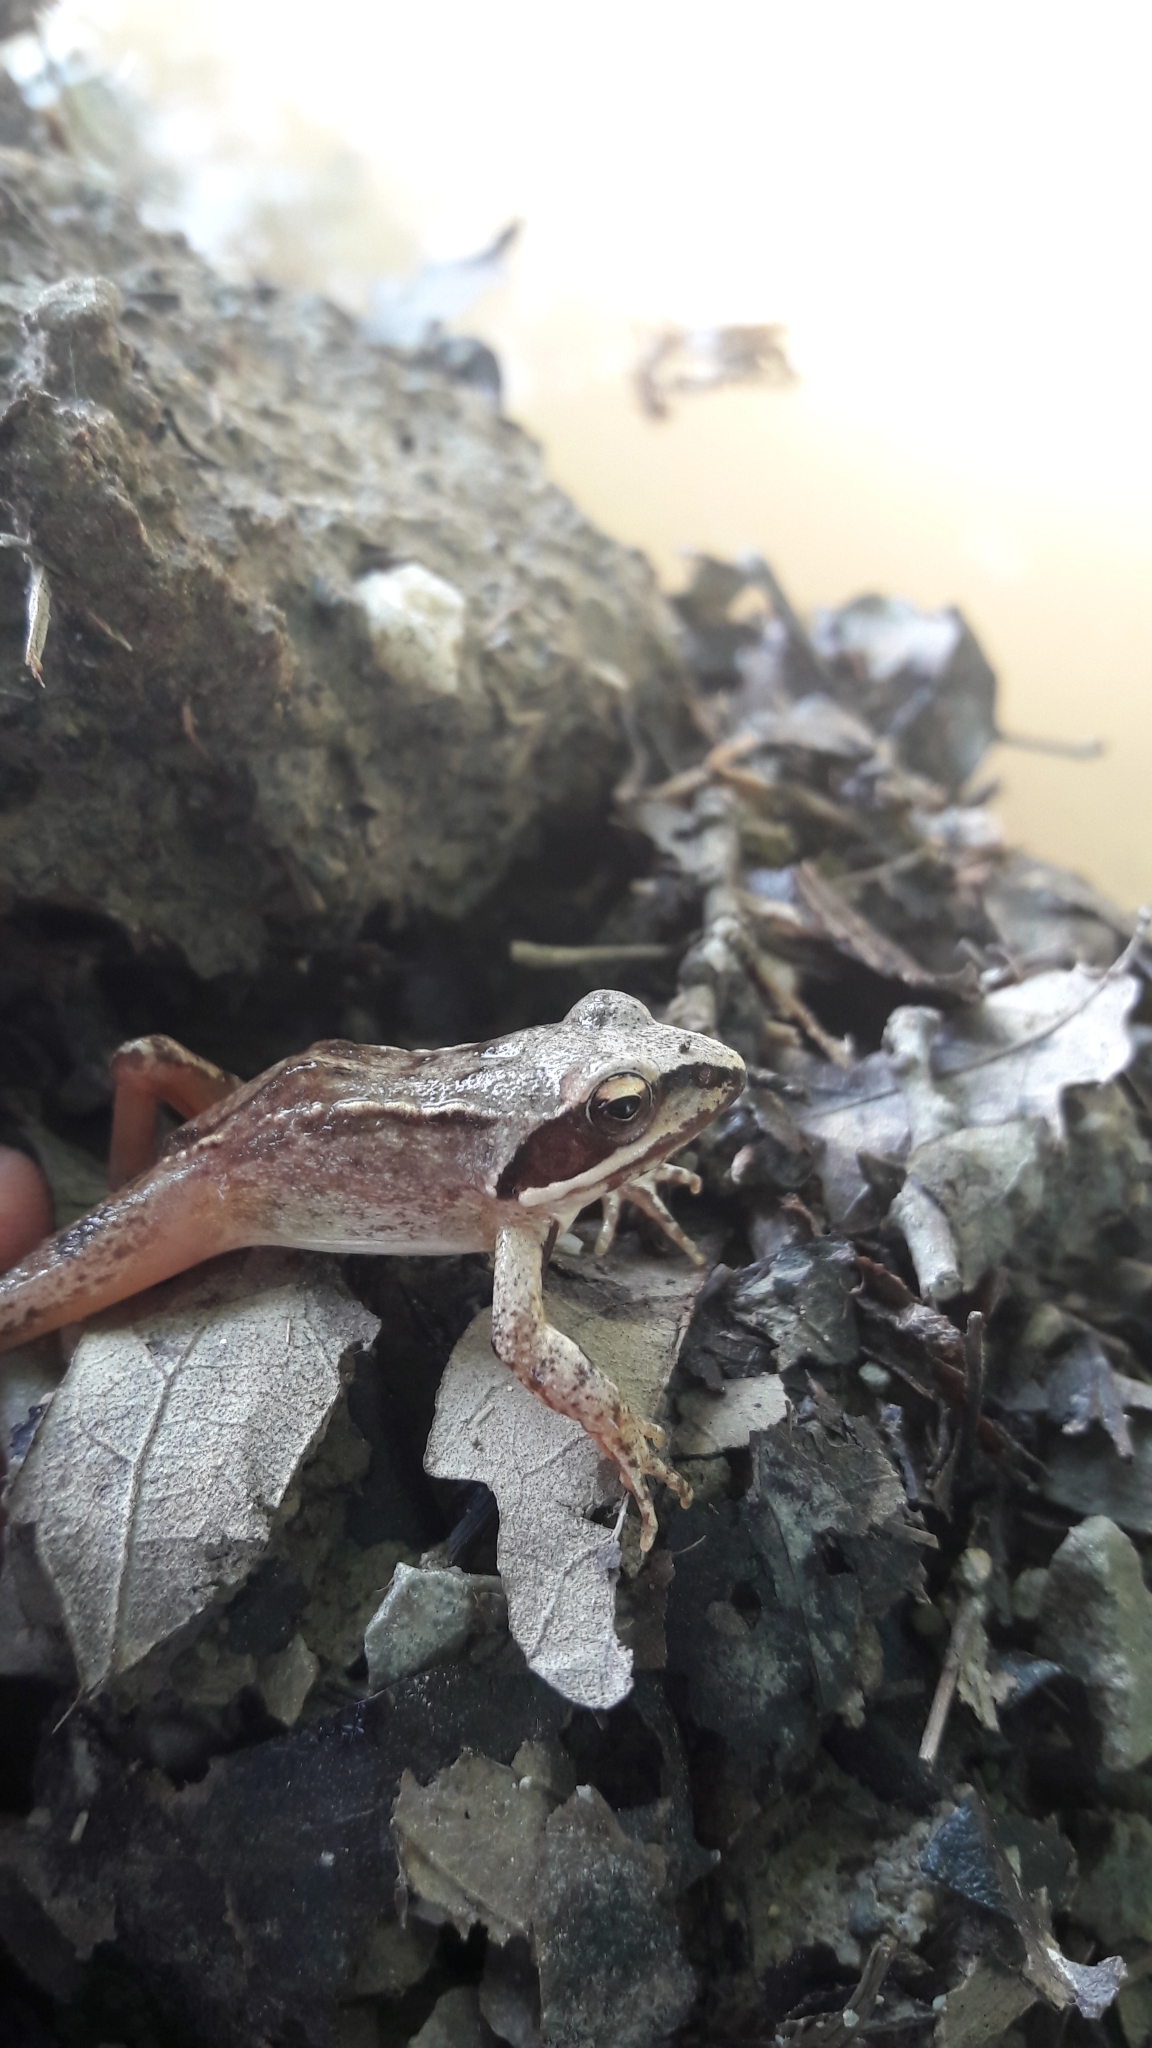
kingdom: Animalia
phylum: Chordata
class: Amphibia
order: Anura
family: Ranidae
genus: Rana
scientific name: Rana dalmatina
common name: Agile frog
